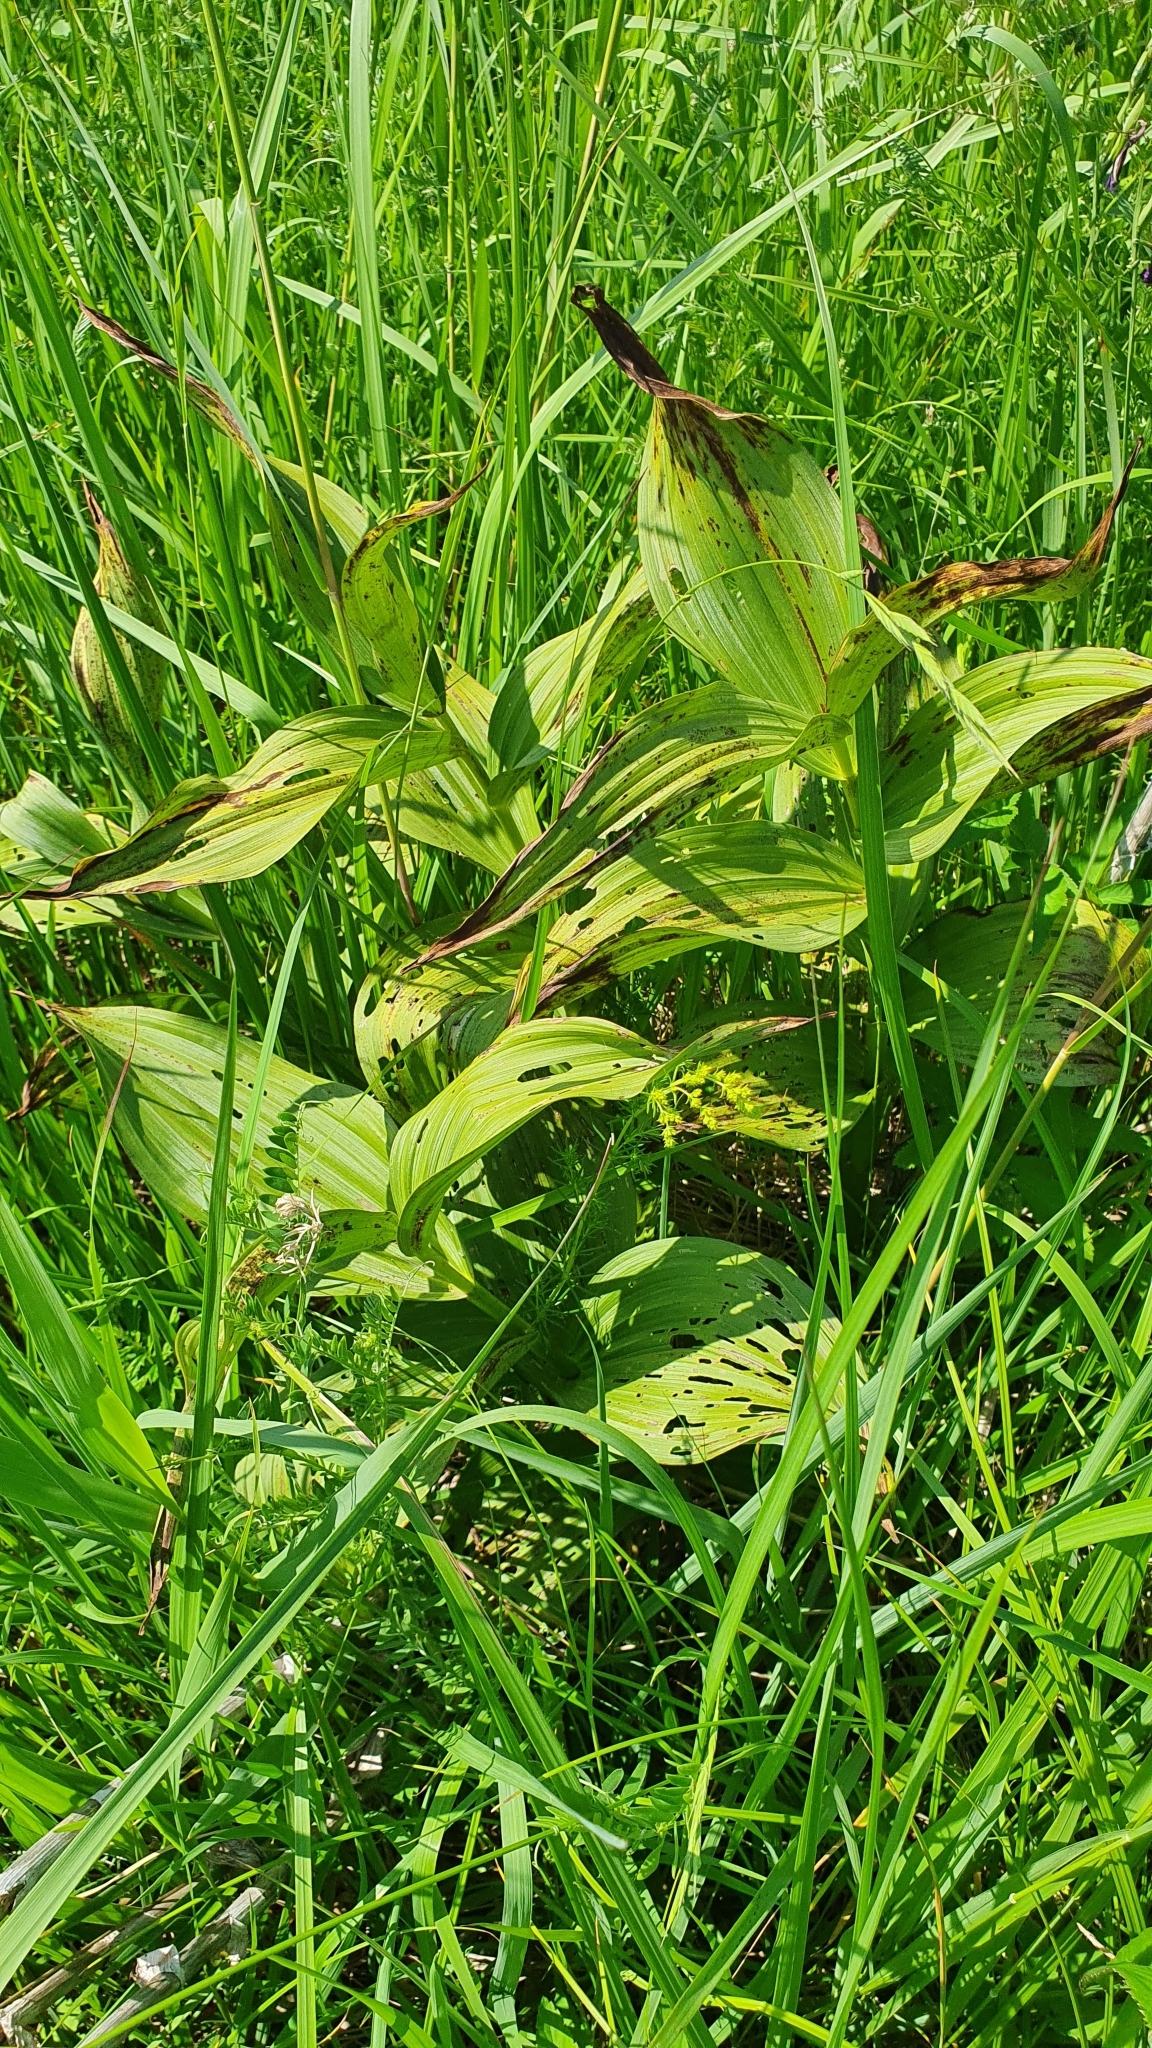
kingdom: Plantae
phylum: Tracheophyta
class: Liliopsida
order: Liliales
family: Melanthiaceae
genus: Veratrum
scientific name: Veratrum lobelianum
